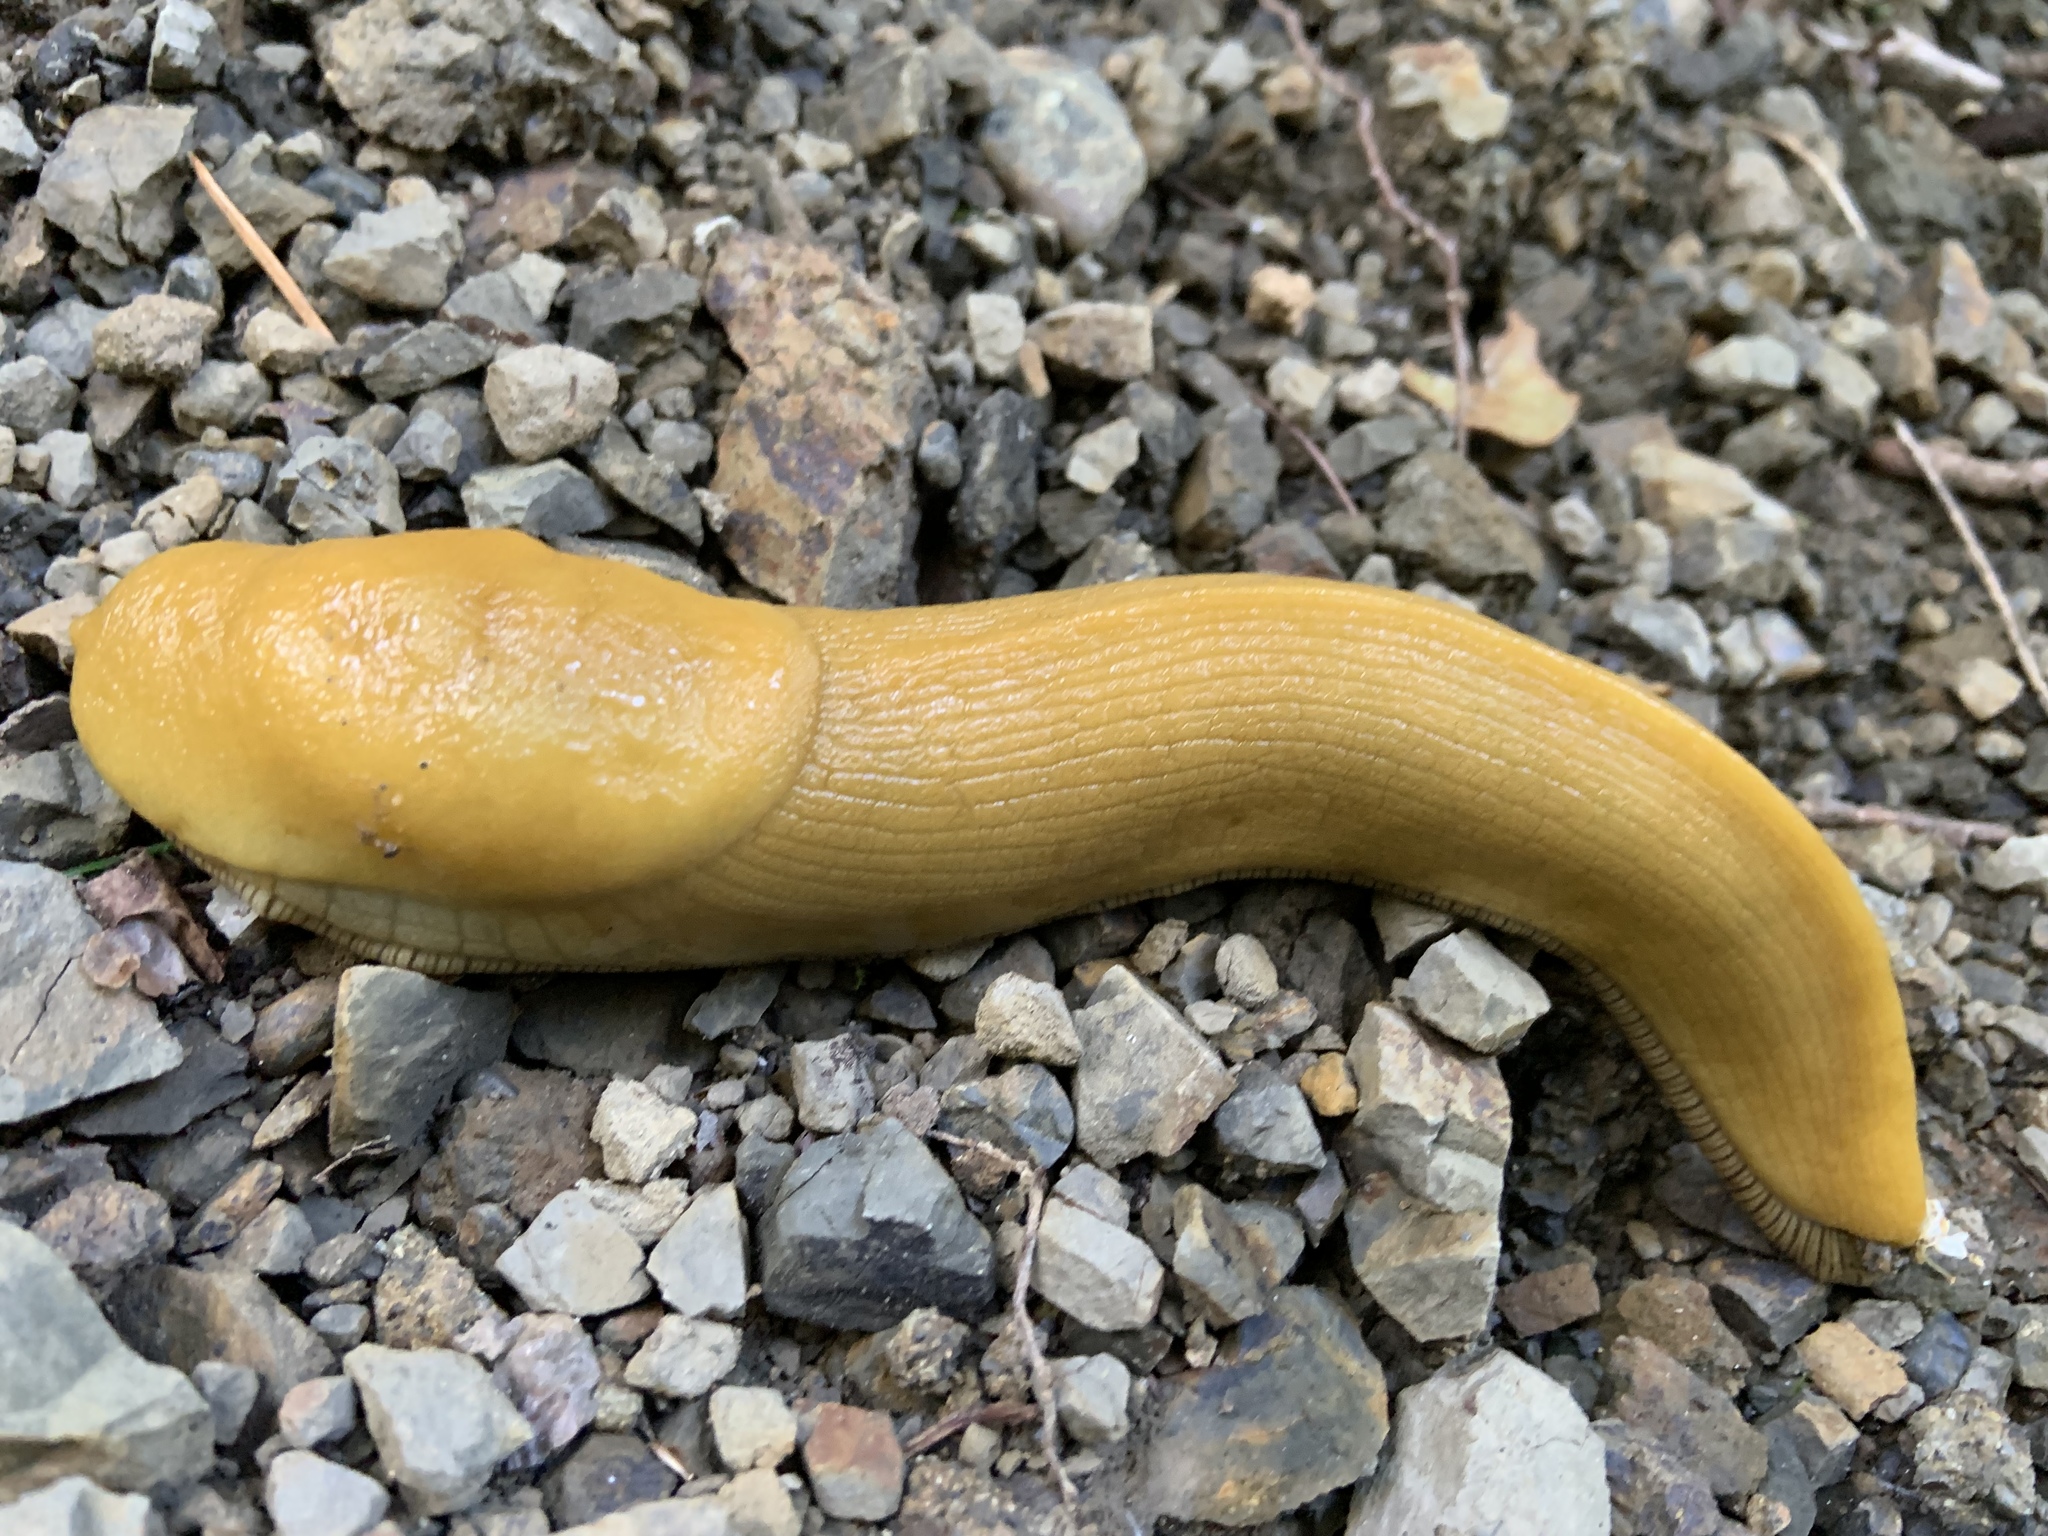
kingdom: Animalia
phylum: Mollusca
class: Gastropoda
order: Stylommatophora
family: Ariolimacidae
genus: Ariolimax
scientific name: Ariolimax californicus
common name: California banana slug
